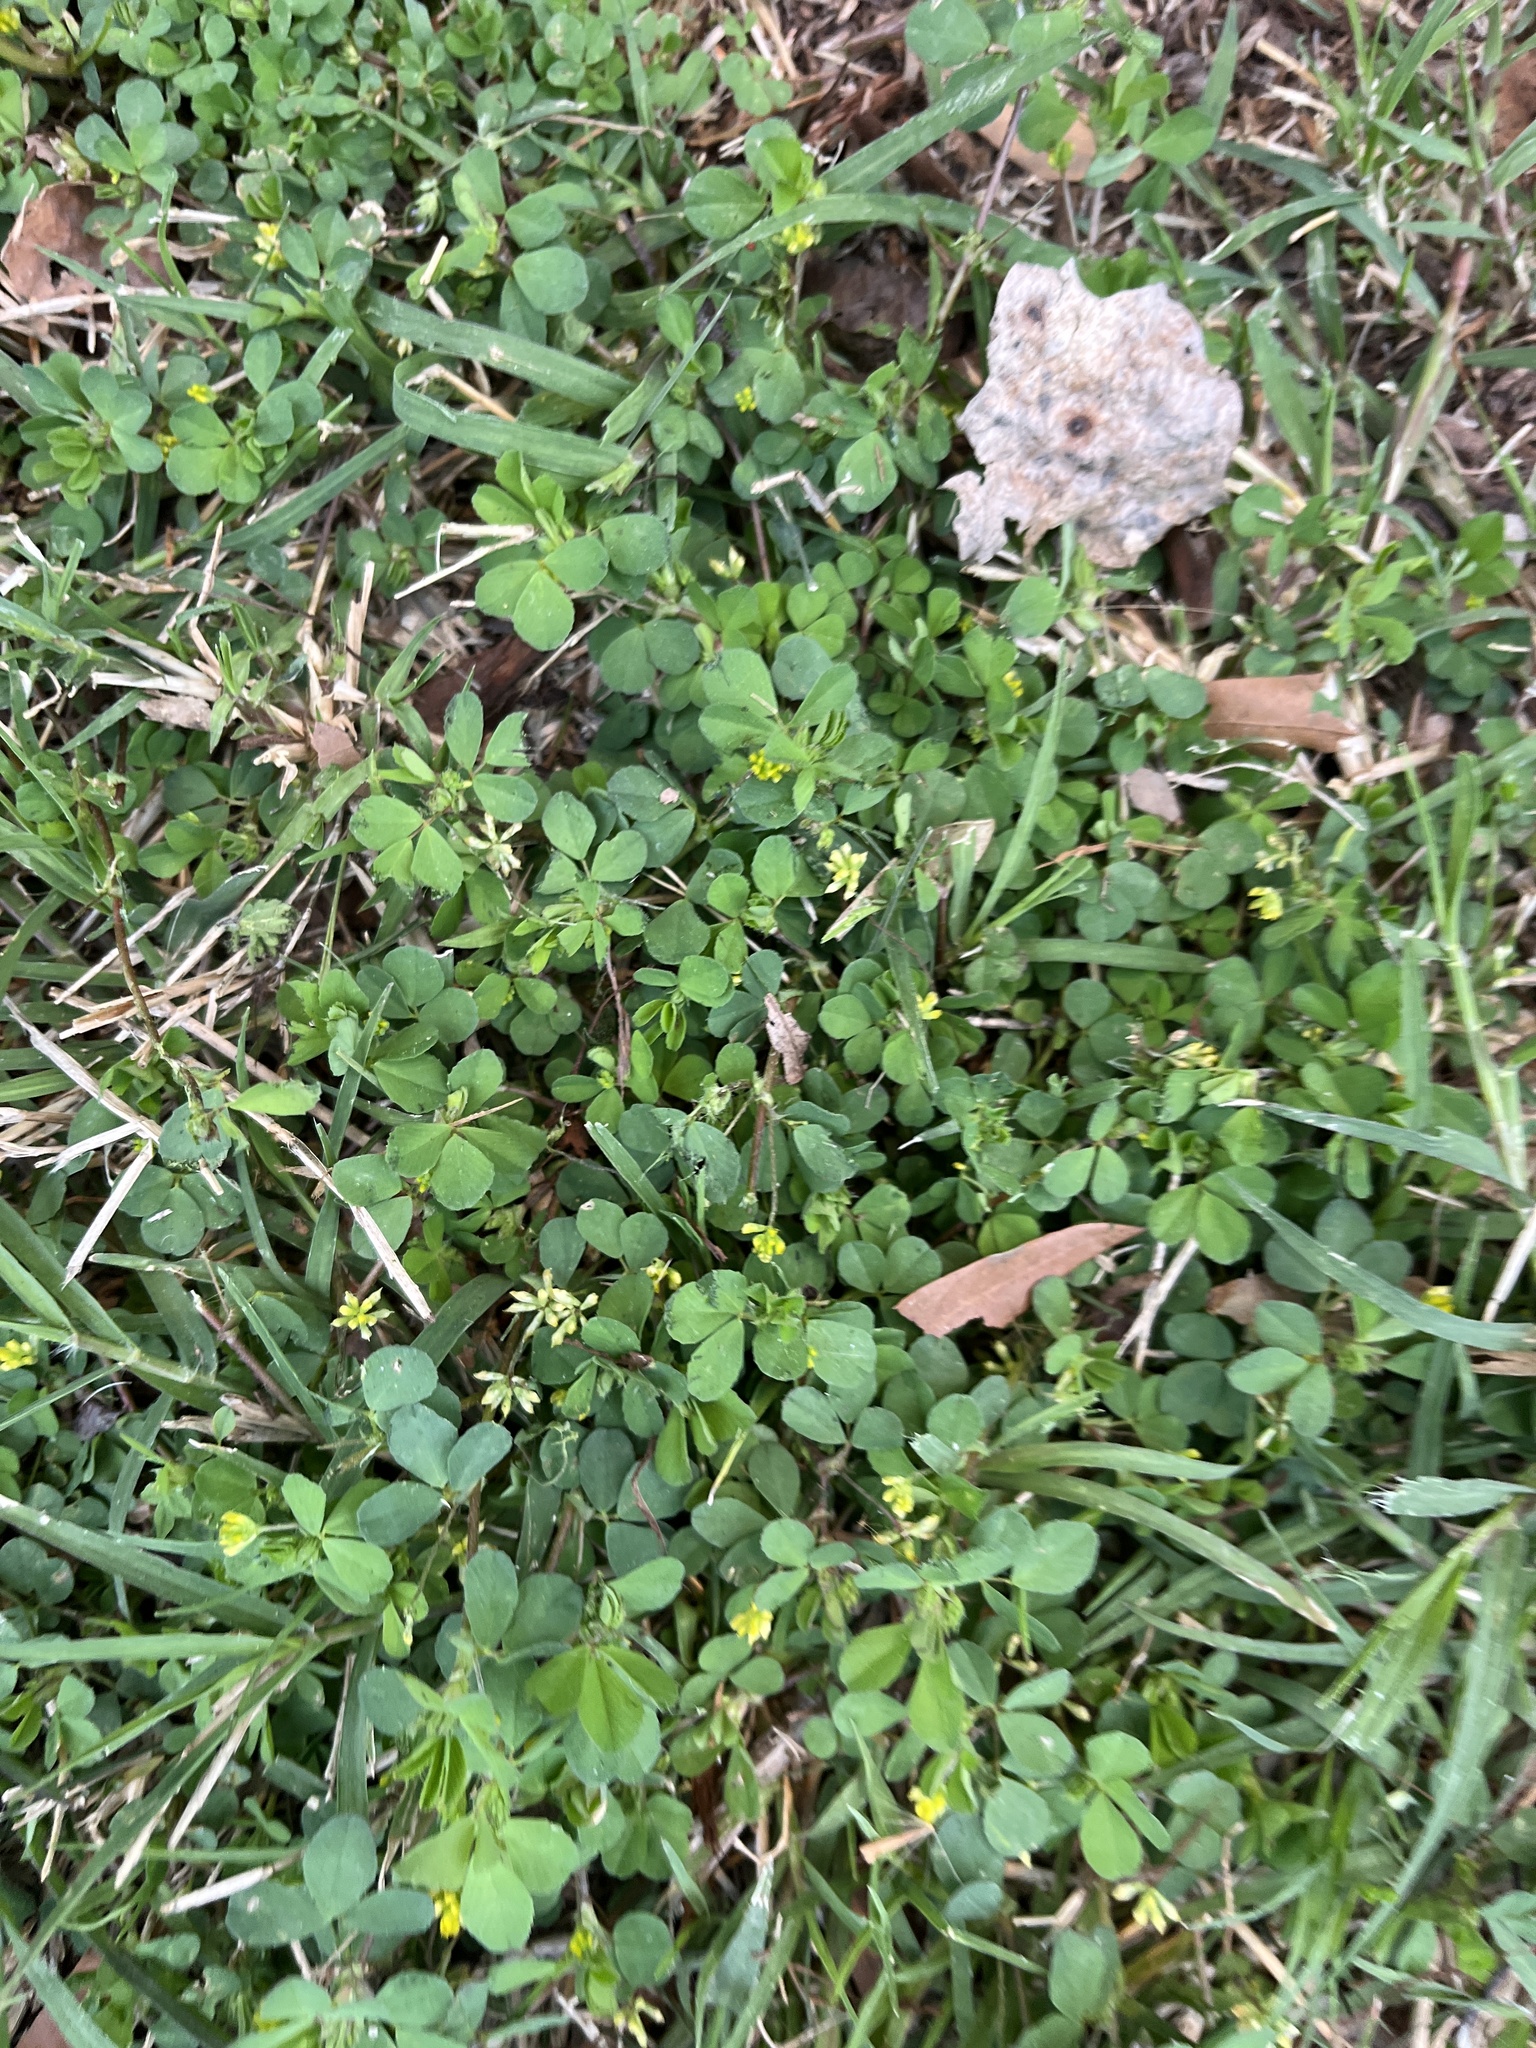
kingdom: Plantae
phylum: Tracheophyta
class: Magnoliopsida
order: Fabales
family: Fabaceae
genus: Trifolium
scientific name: Trifolium dubium
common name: Suckling clover
